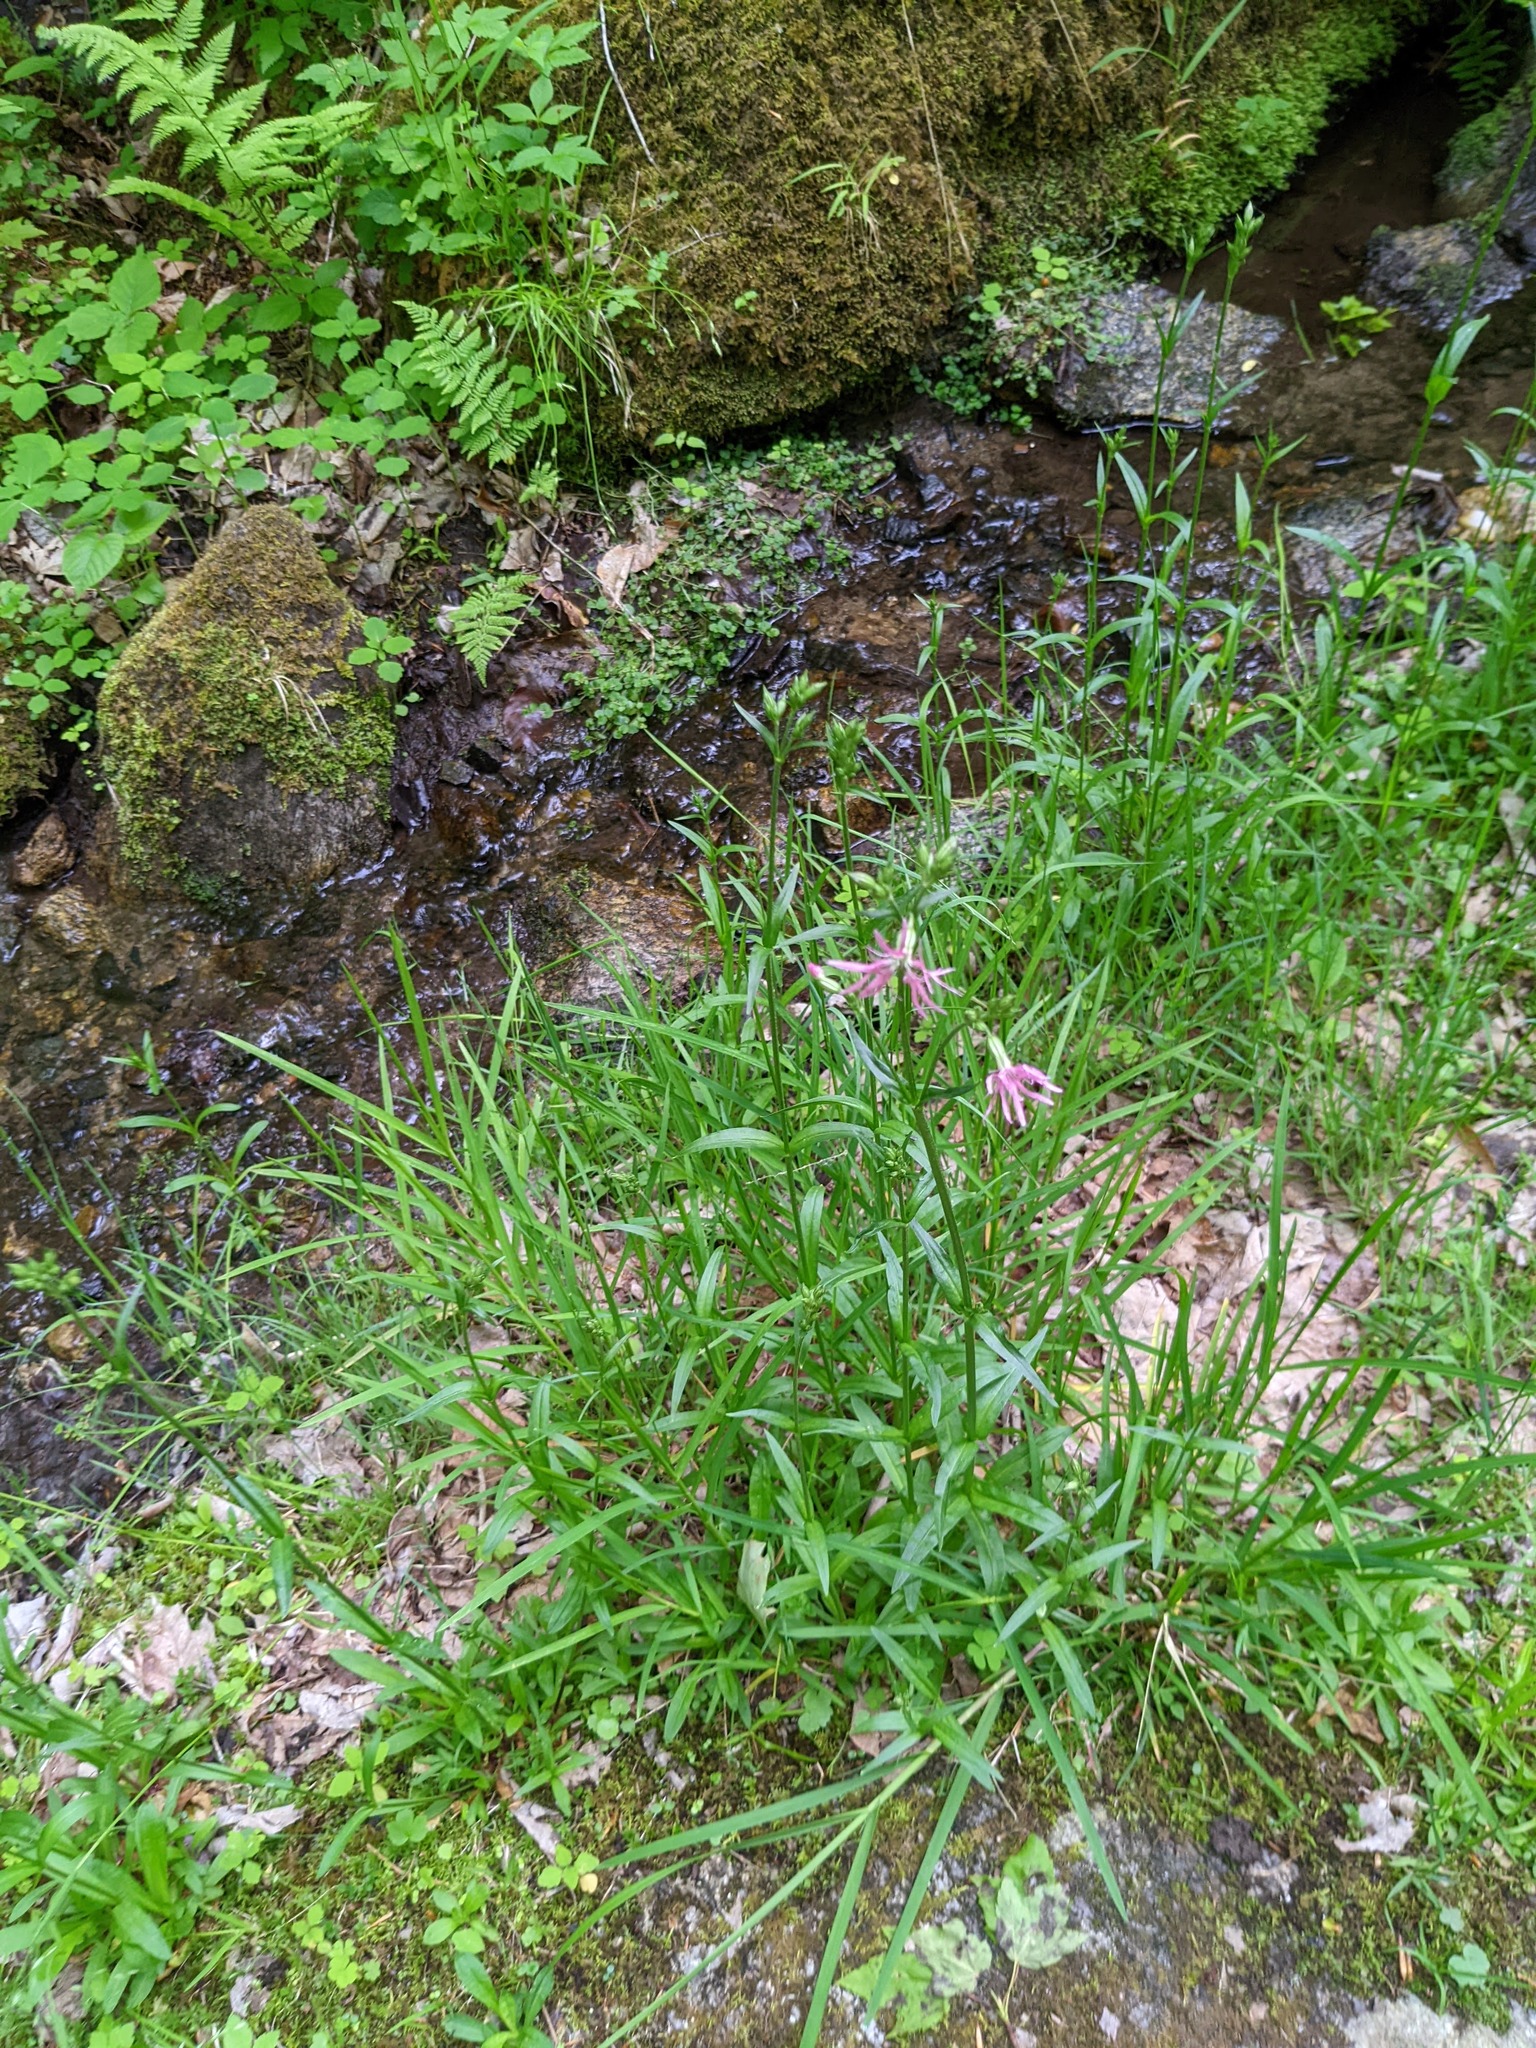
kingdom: Plantae
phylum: Tracheophyta
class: Magnoliopsida
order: Caryophyllales
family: Caryophyllaceae
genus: Silene
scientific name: Silene flos-cuculi
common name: Ragged-robin
